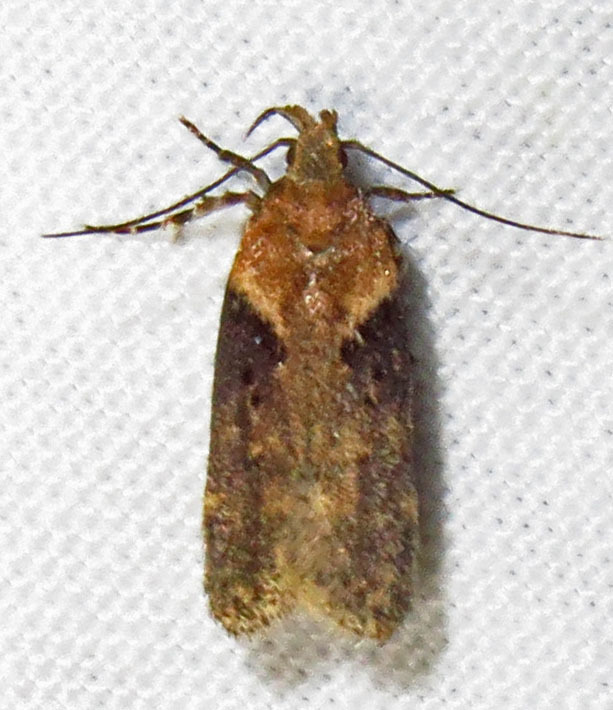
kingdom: Animalia
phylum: Arthropoda
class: Insecta
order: Lepidoptera
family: Gelechiidae
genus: Chionodes
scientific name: Chionodes mediofuscella
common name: Black-smudged chionodes moth
